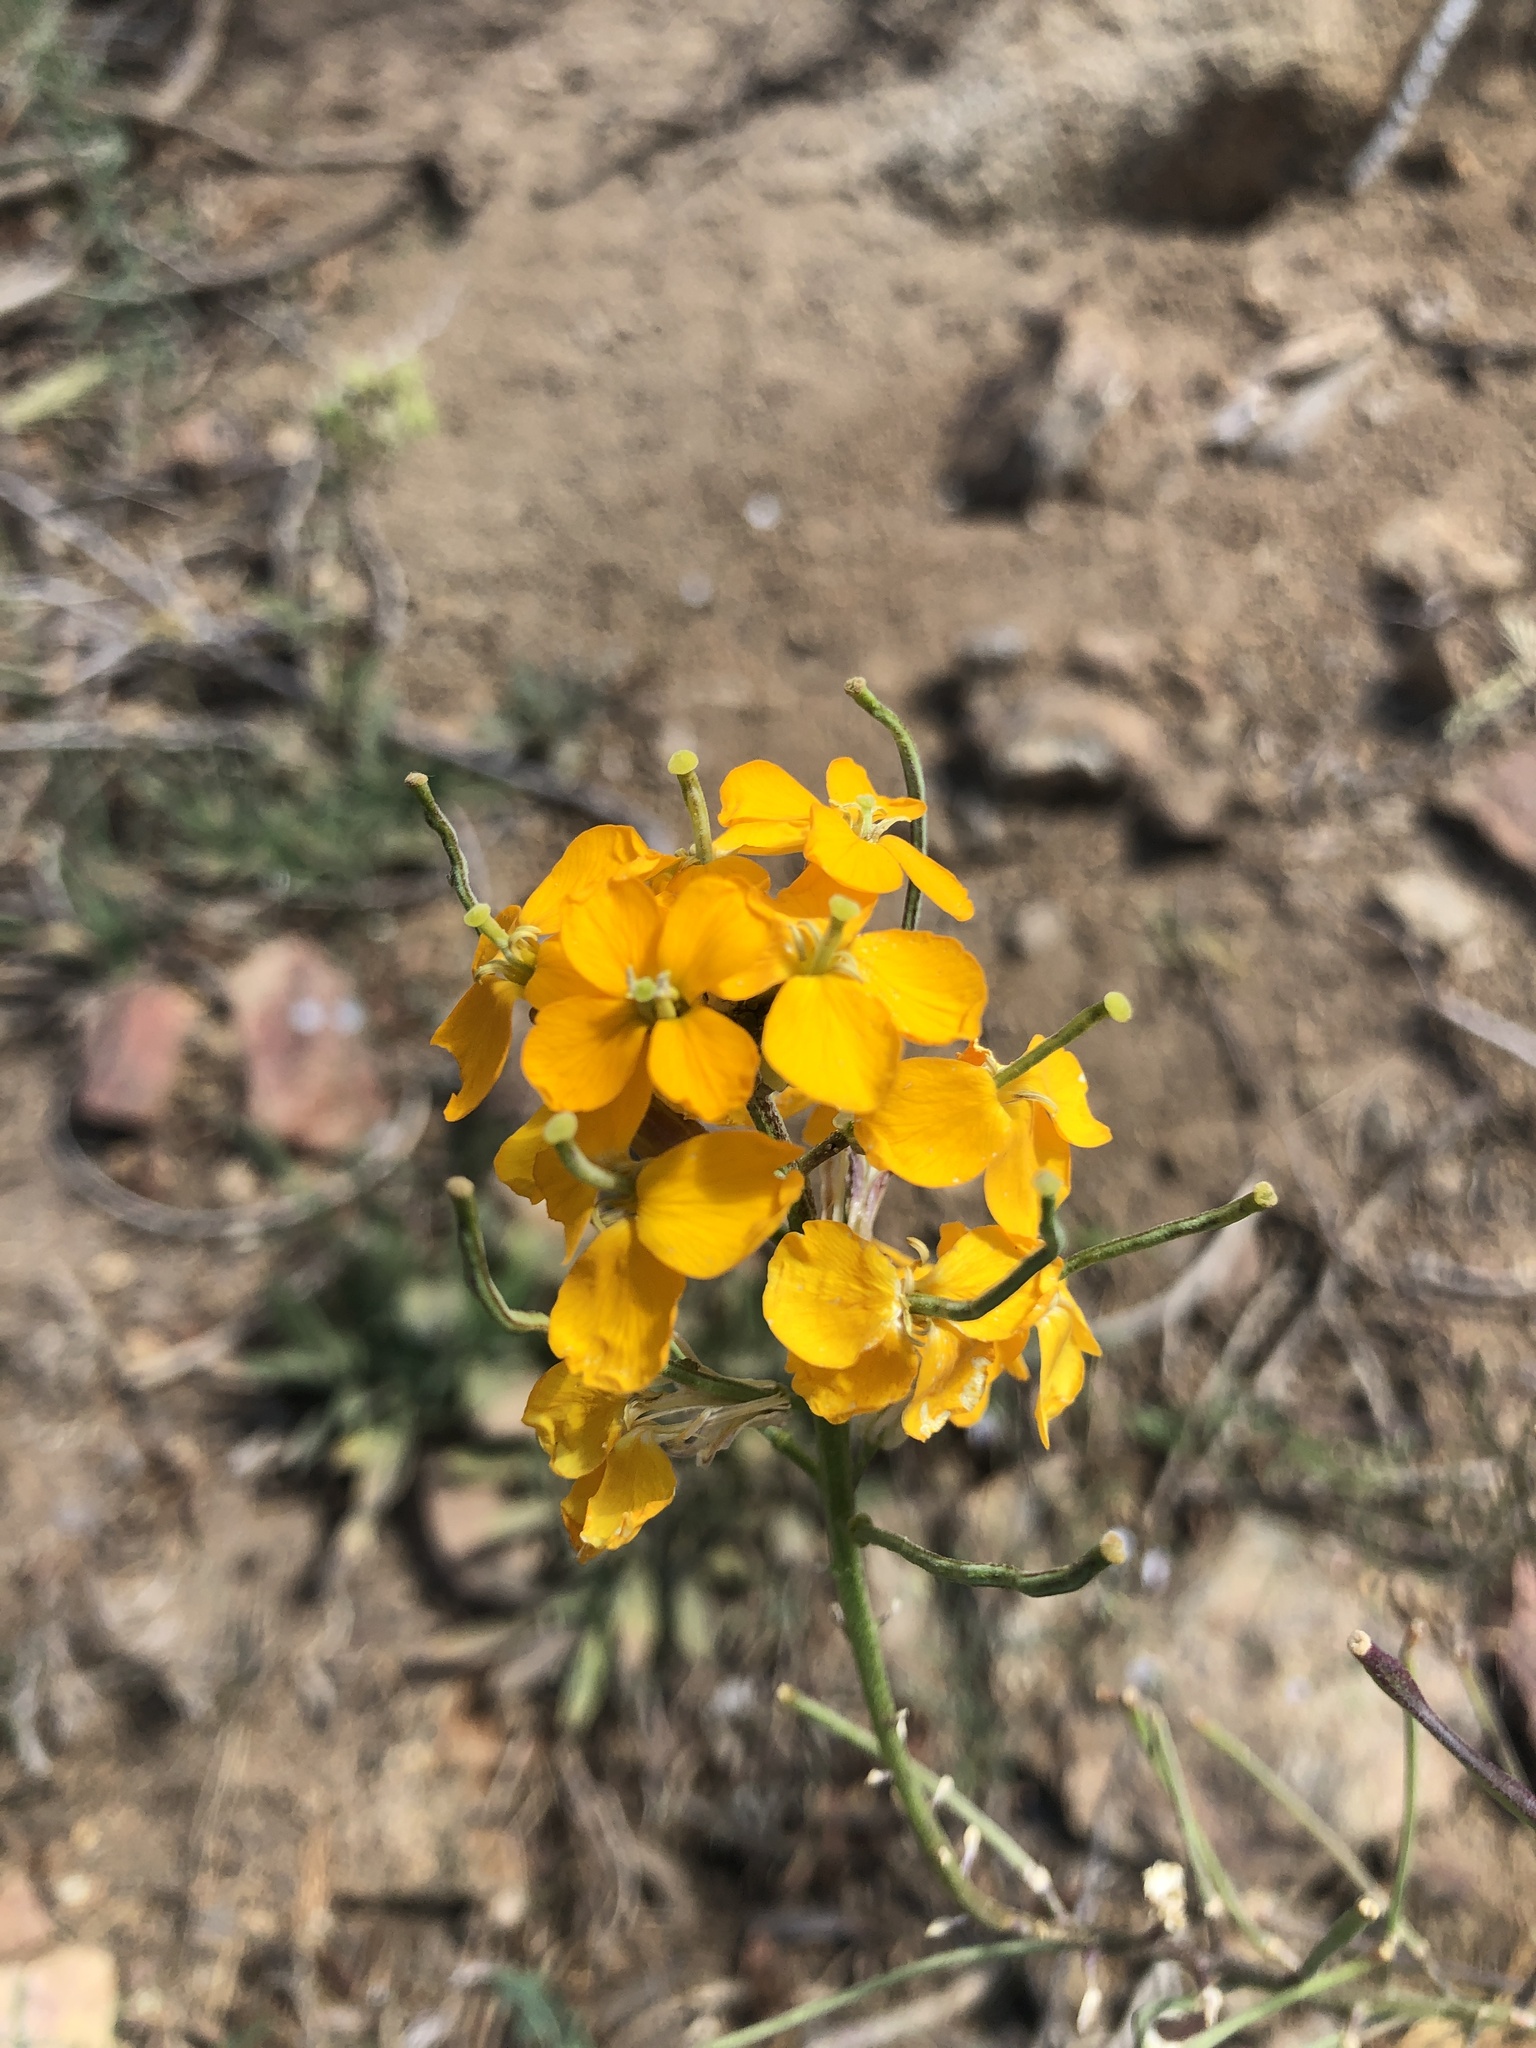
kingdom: Plantae
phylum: Tracheophyta
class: Magnoliopsida
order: Brassicales
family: Brassicaceae
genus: Erysimum
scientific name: Erysimum capitatum
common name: Western wallflower
